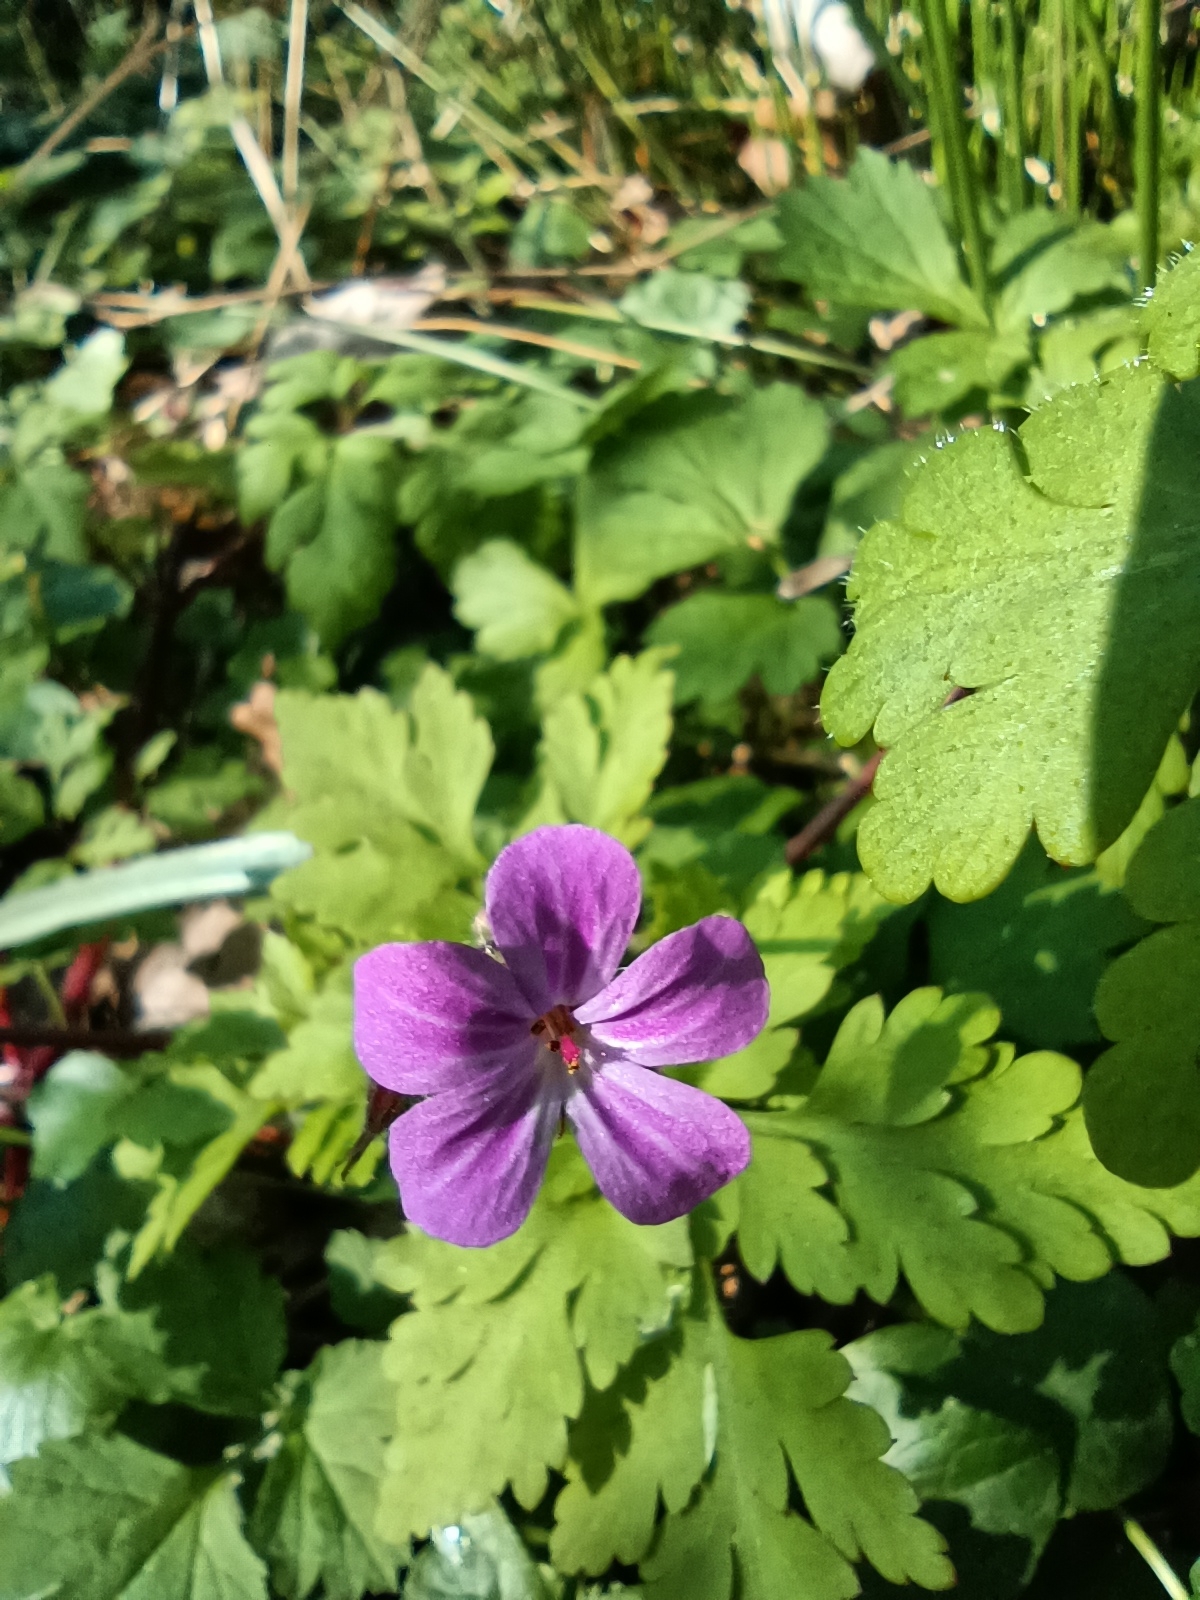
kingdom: Plantae
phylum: Tracheophyta
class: Magnoliopsida
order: Geraniales
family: Geraniaceae
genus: Geranium
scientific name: Geranium robertianum
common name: Herb-robert
